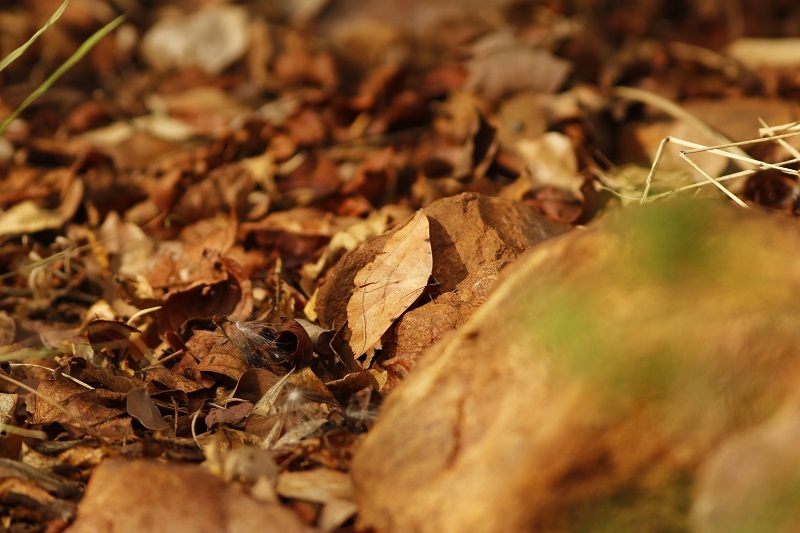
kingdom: Animalia
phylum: Arthropoda
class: Insecta
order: Lepidoptera
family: Erebidae
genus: Hypopyra
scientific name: Hypopyra capensis
